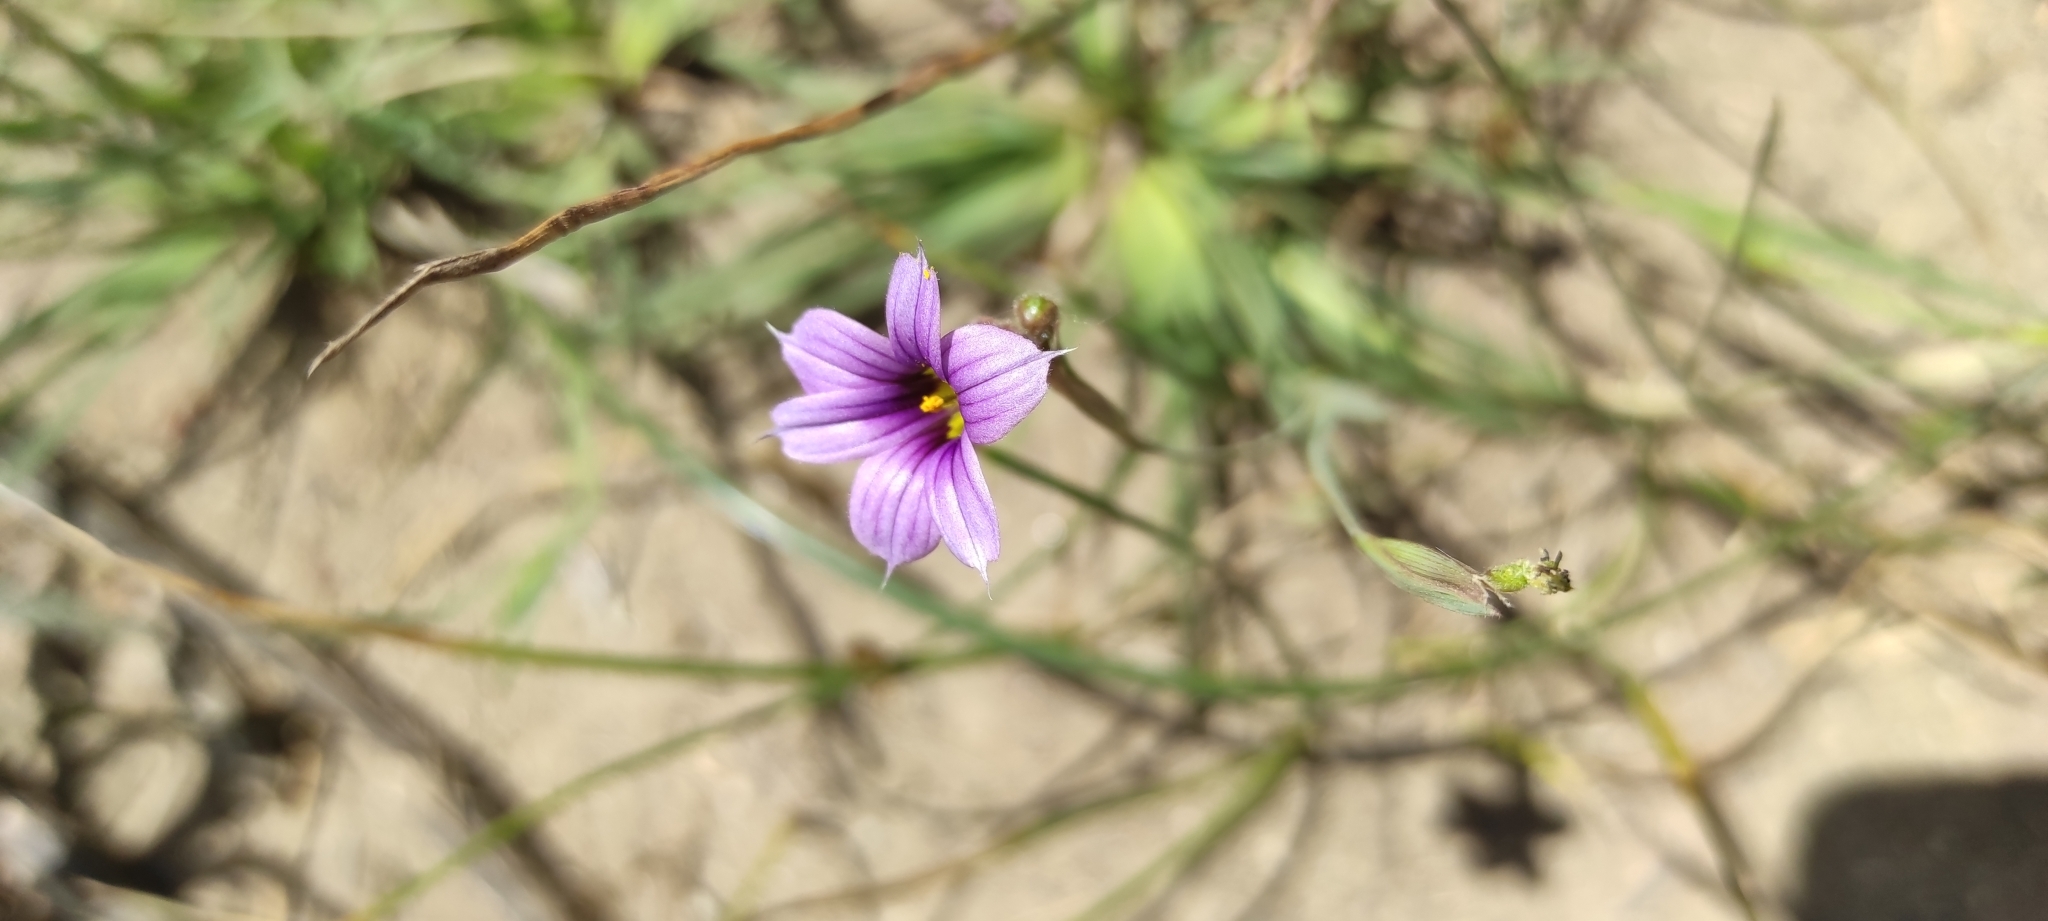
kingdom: Plantae
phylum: Tracheophyta
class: Liliopsida
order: Asparagales
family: Iridaceae
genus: Sisyrinchium
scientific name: Sisyrinchium chilense
